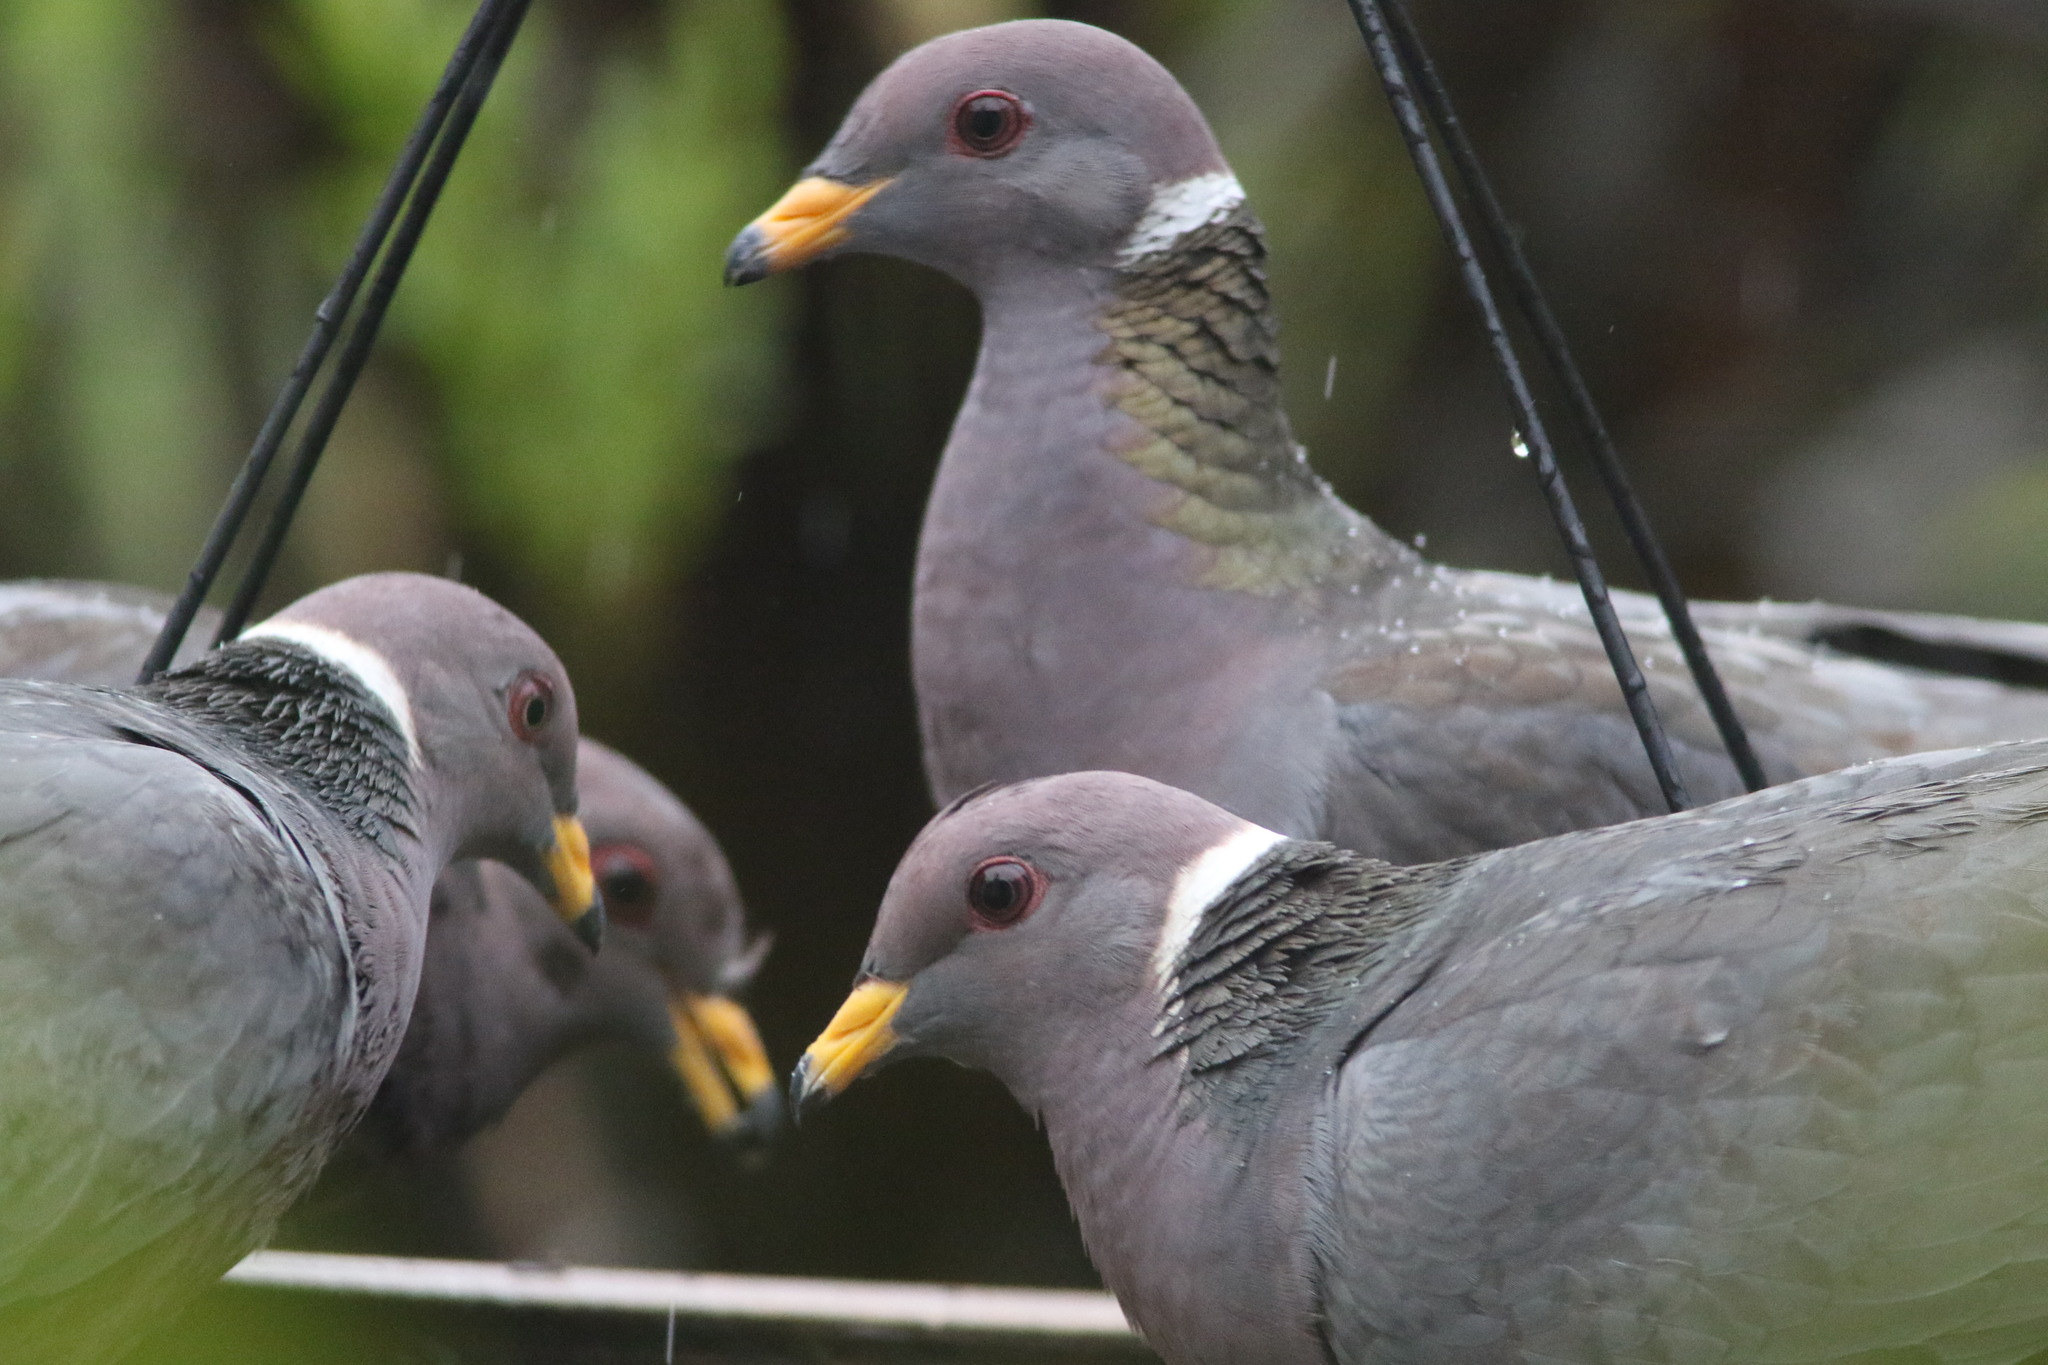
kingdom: Animalia
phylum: Chordata
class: Aves
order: Columbiformes
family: Columbidae
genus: Patagioenas
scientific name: Patagioenas fasciata
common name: Band-tailed pigeon
